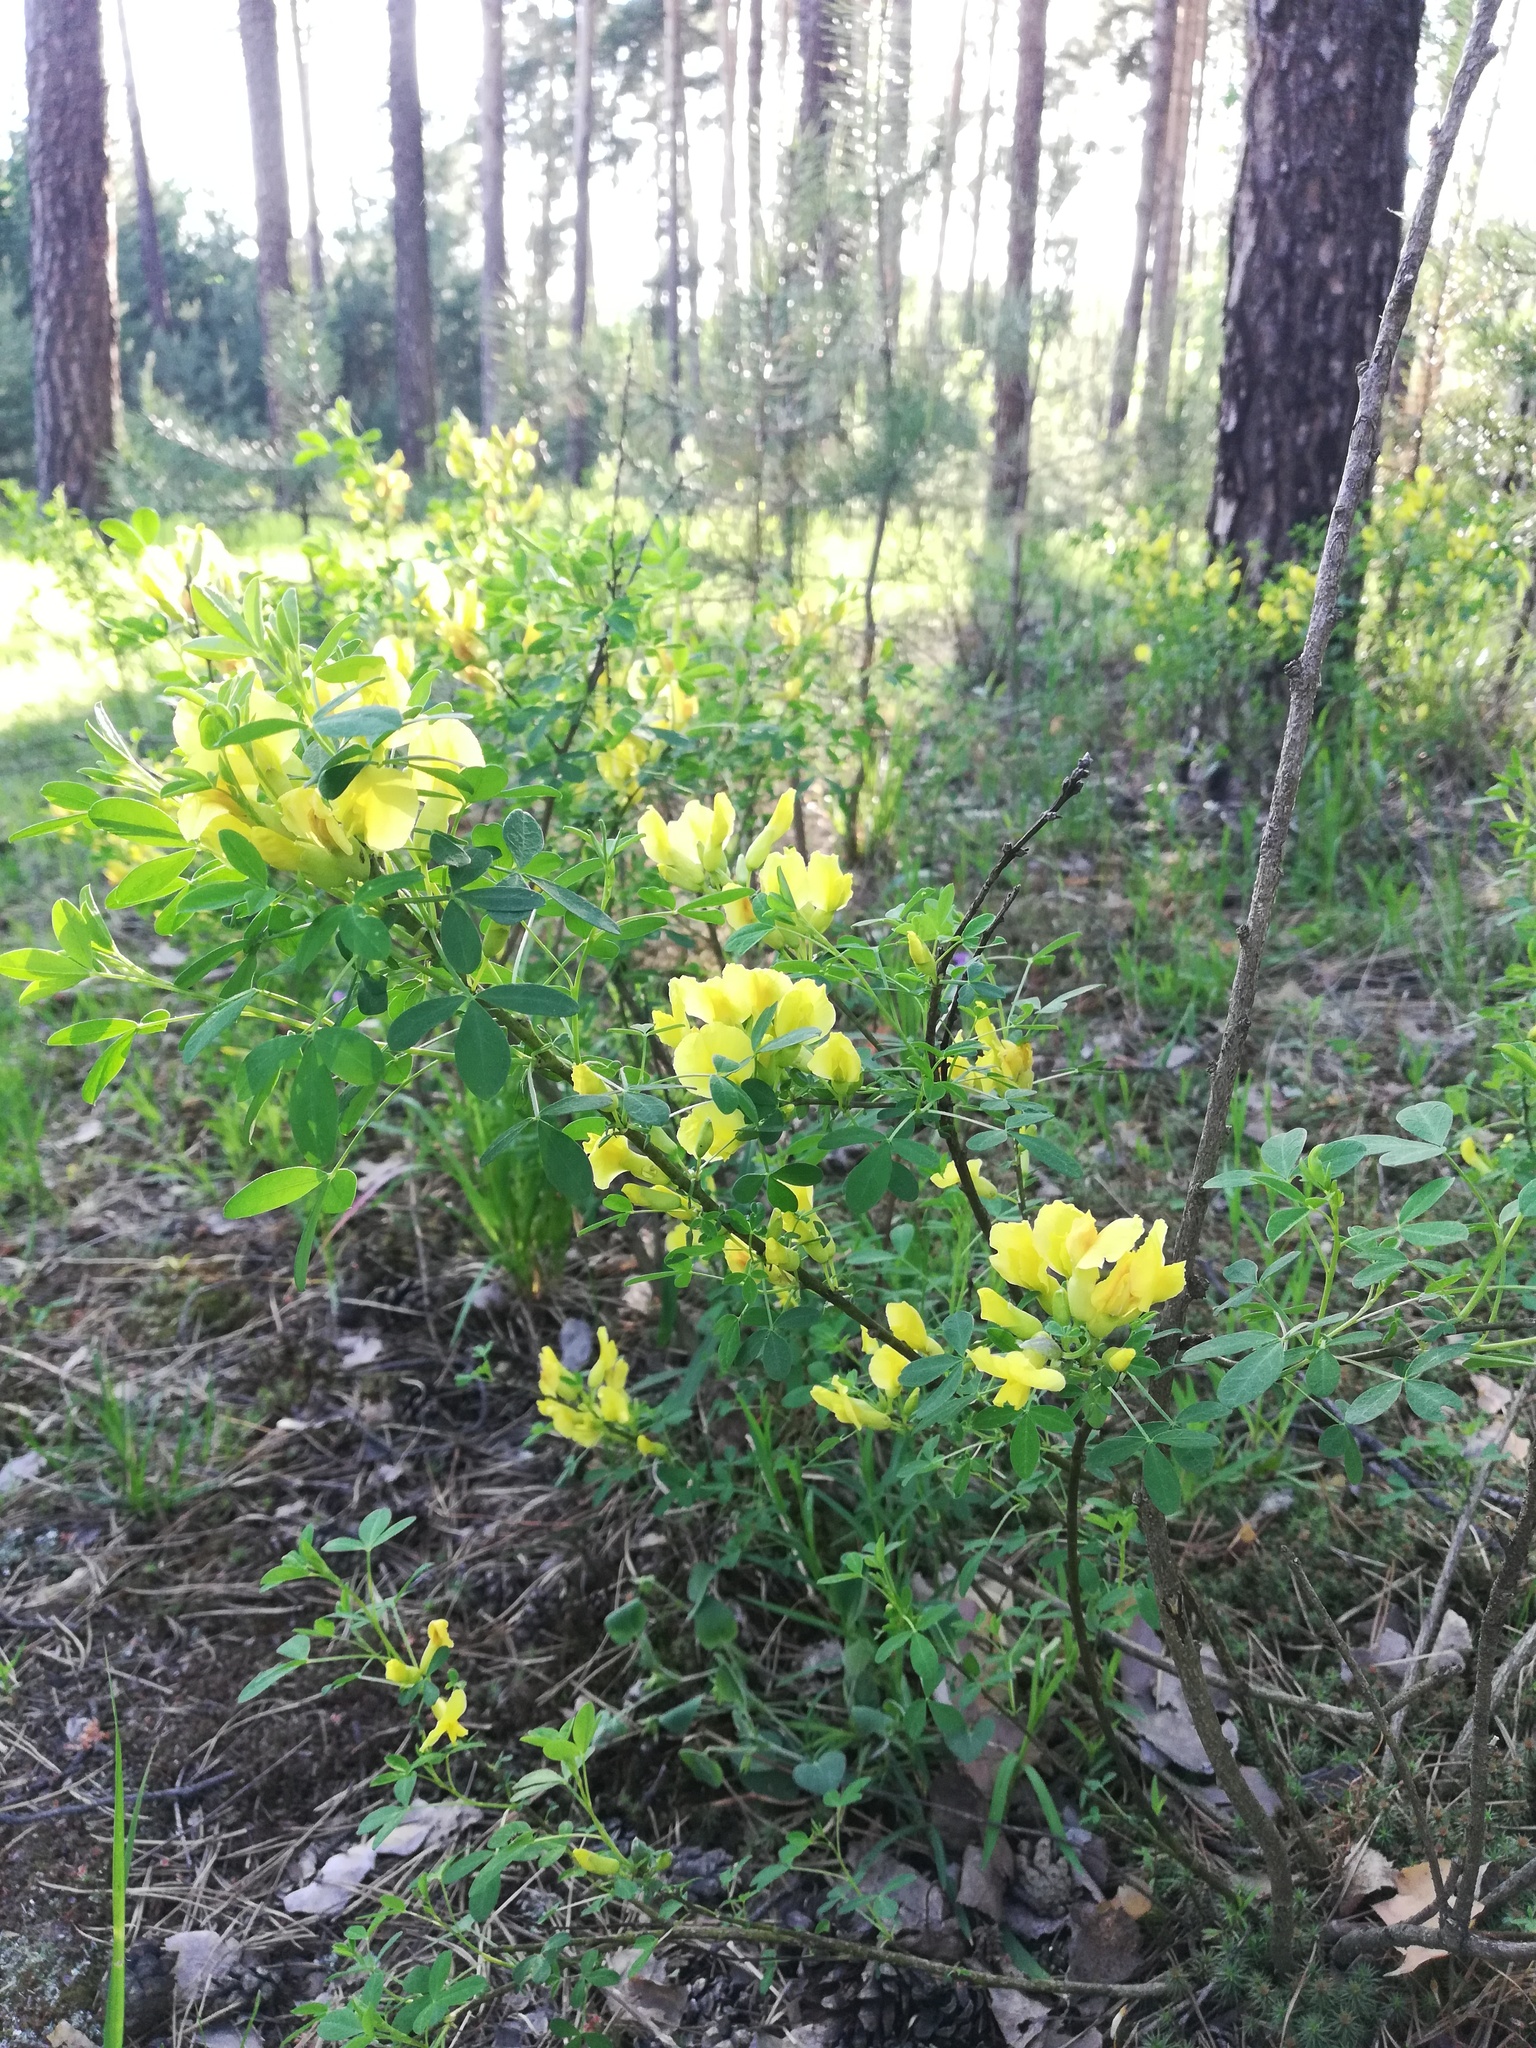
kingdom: Plantae
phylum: Tracheophyta
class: Magnoliopsida
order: Fabales
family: Fabaceae
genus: Chamaecytisus
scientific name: Chamaecytisus ruthenicus
